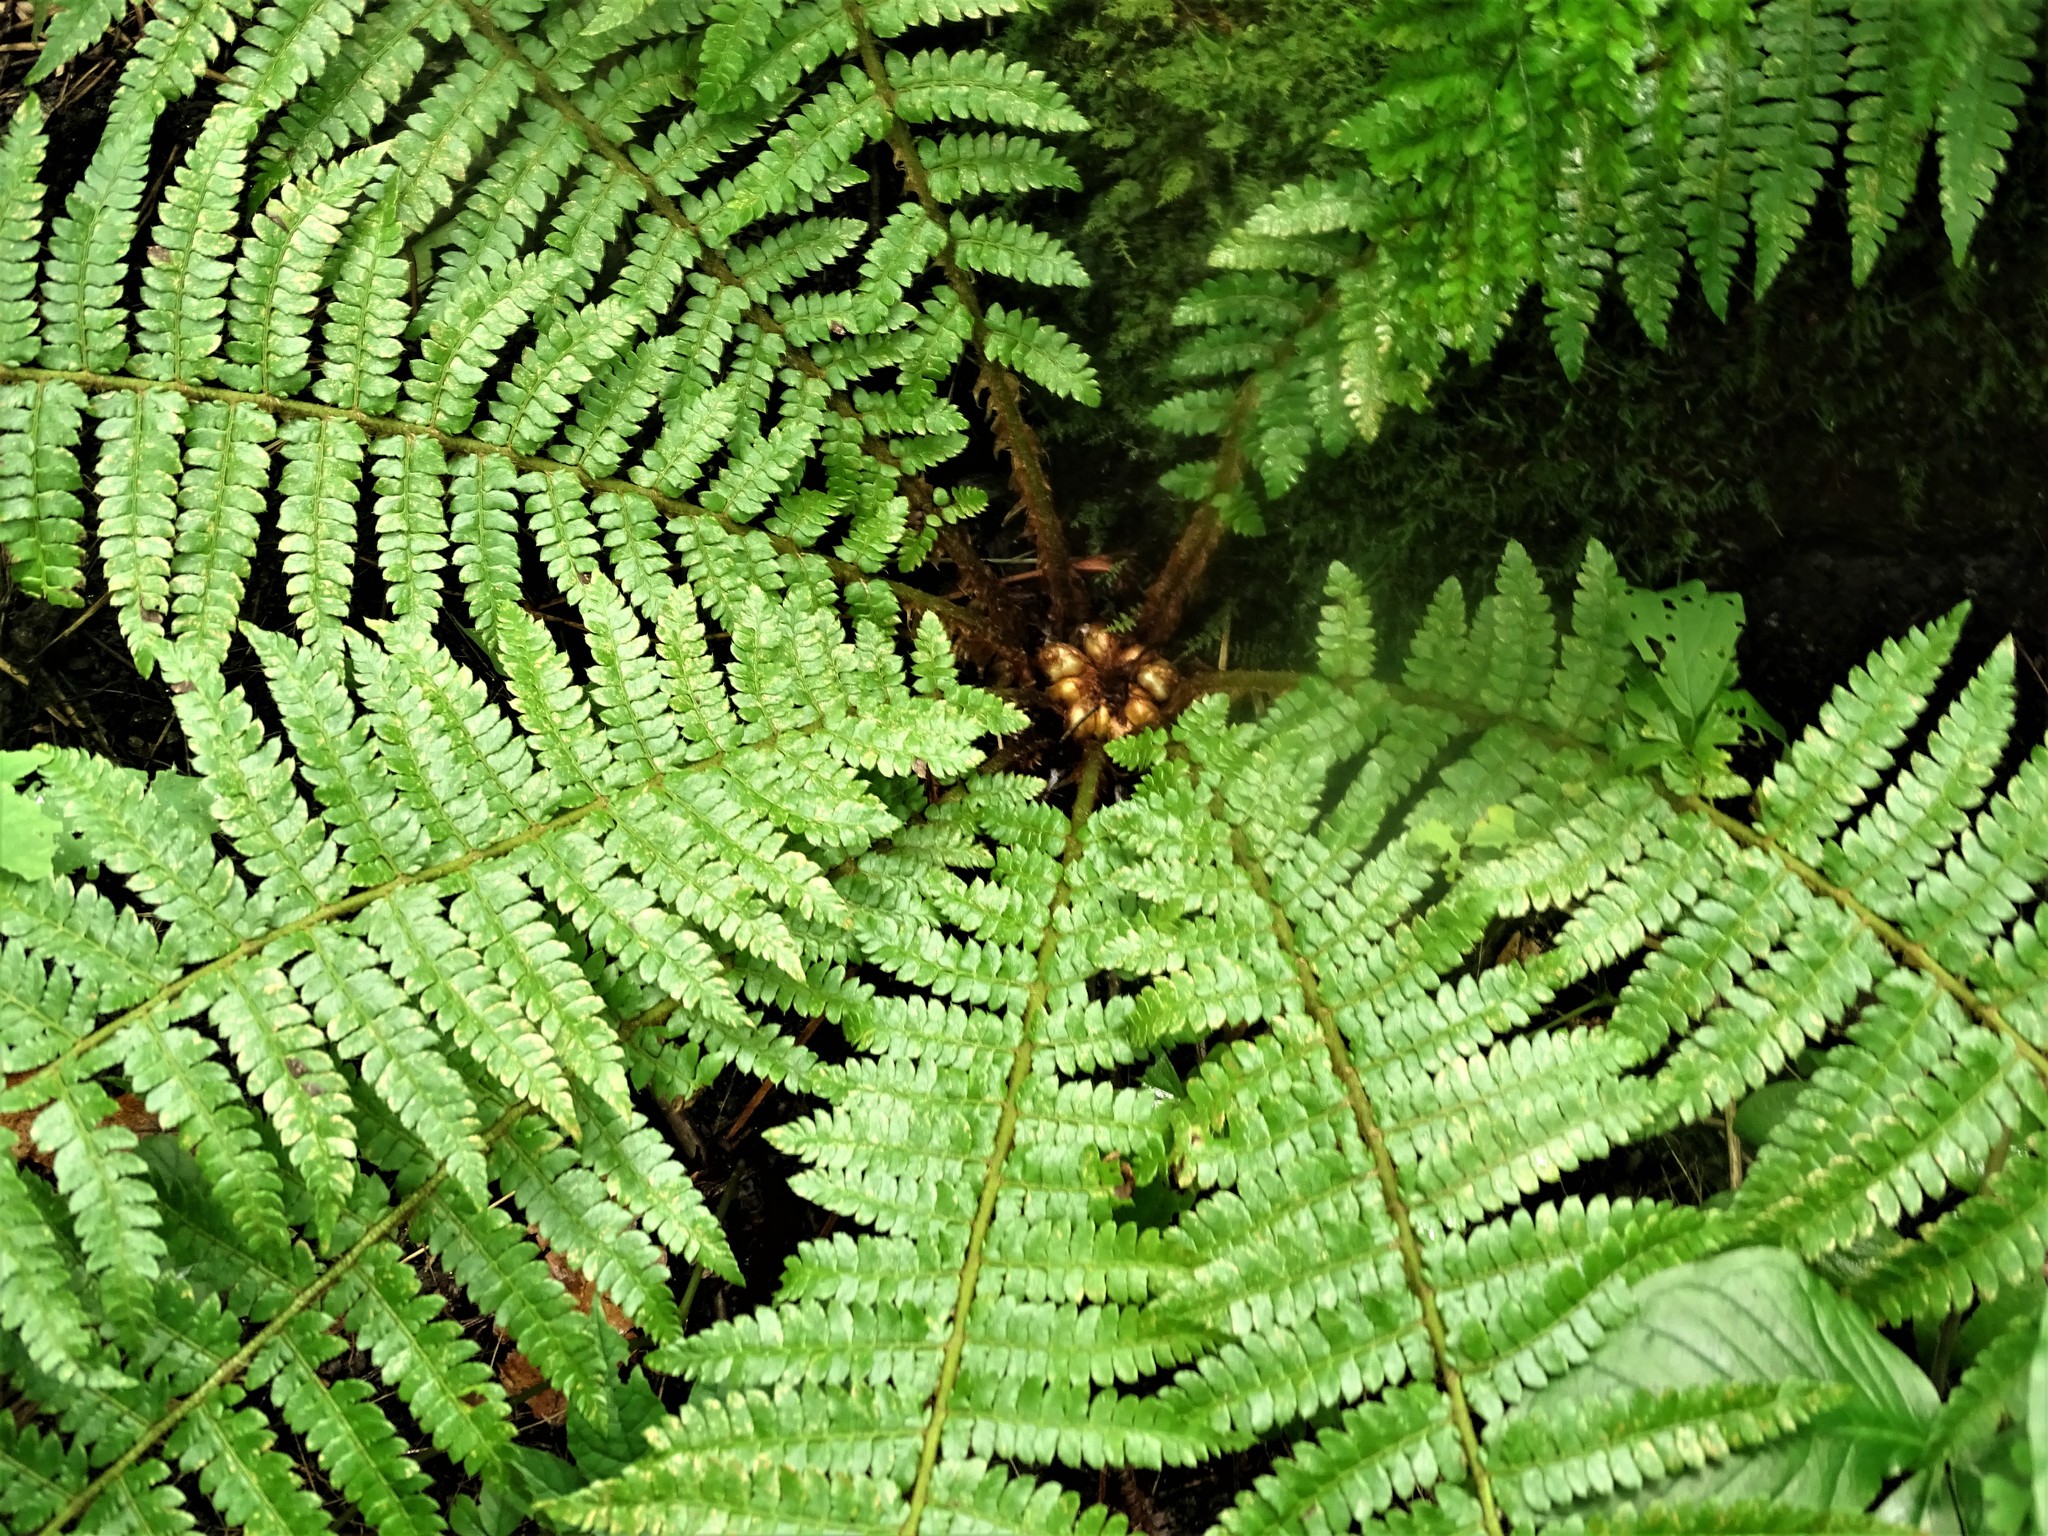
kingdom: Plantae
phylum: Tracheophyta
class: Polypodiopsida
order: Polypodiales
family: Dryopteridaceae
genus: Polystichum
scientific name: Polystichum braunii
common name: Braun's holly fern
